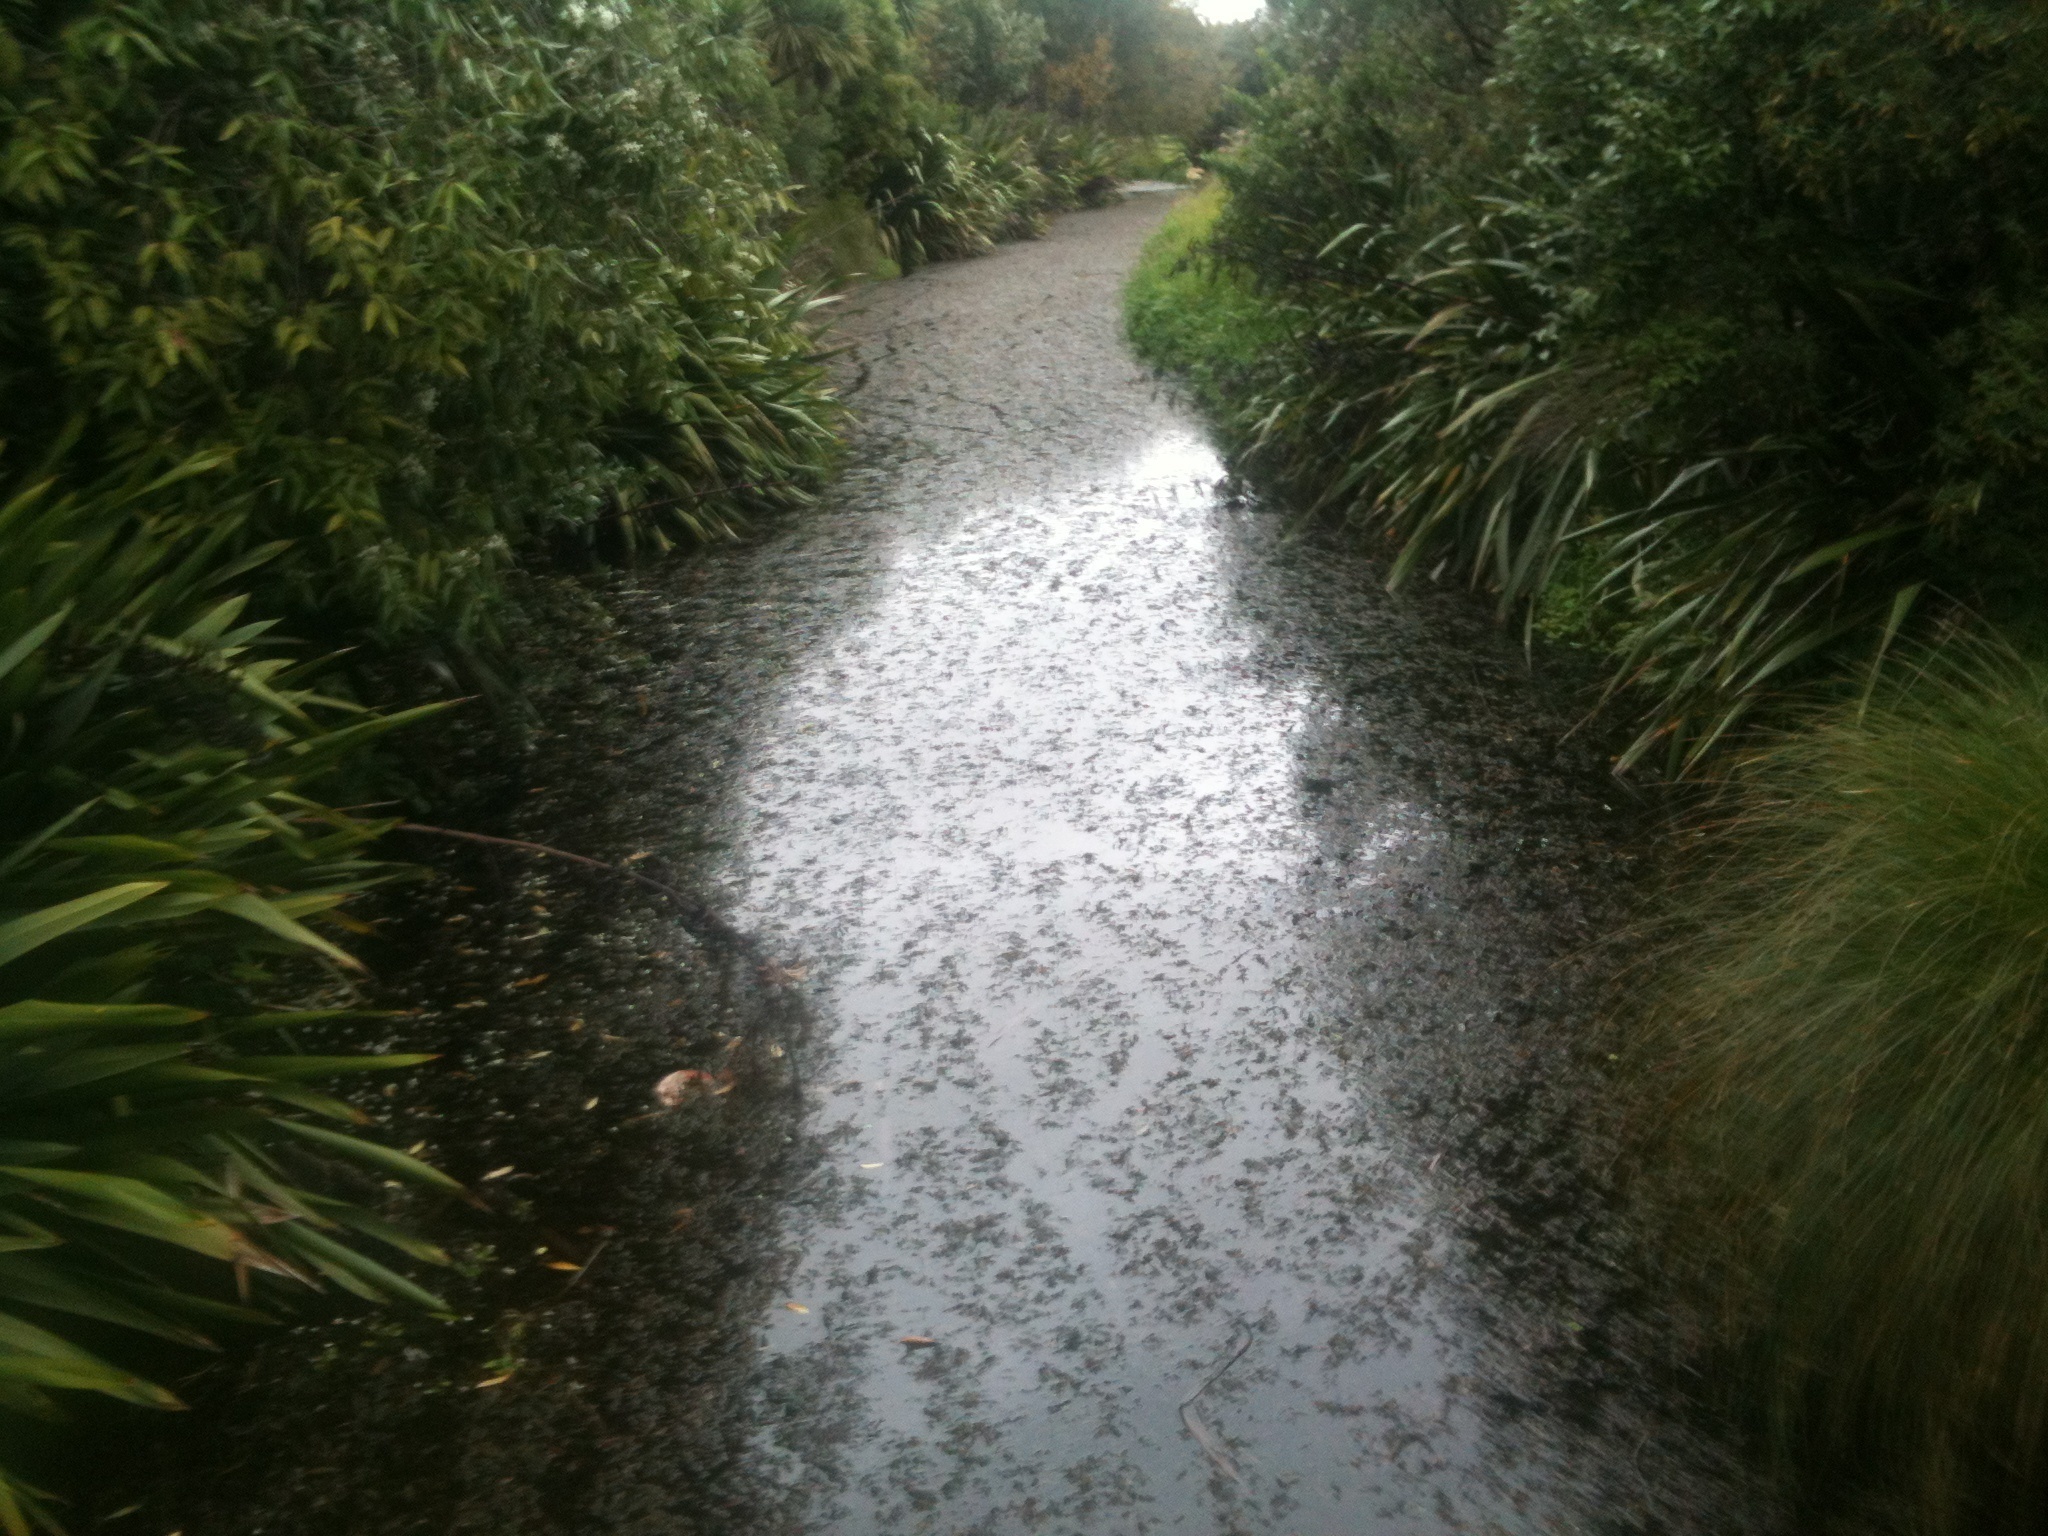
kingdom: Plantae
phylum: Tracheophyta
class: Liliopsida
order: Alismatales
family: Potamogetonaceae
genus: Potamogeton
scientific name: Potamogeton crispus
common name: Curled pondweed
